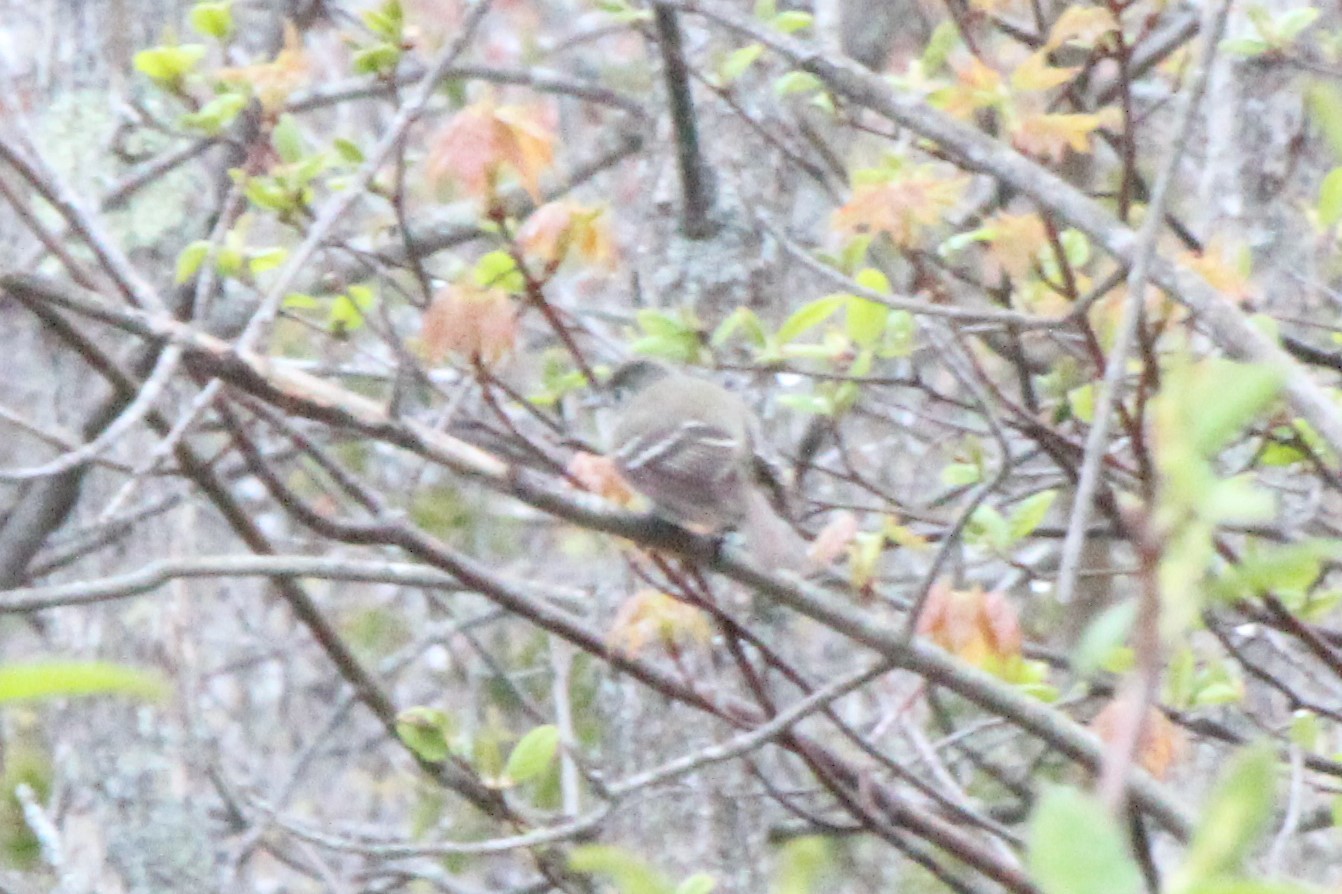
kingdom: Animalia
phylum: Chordata
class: Aves
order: Passeriformes
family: Tyrannidae
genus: Empidonax
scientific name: Empidonax minimus
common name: Least flycatcher
